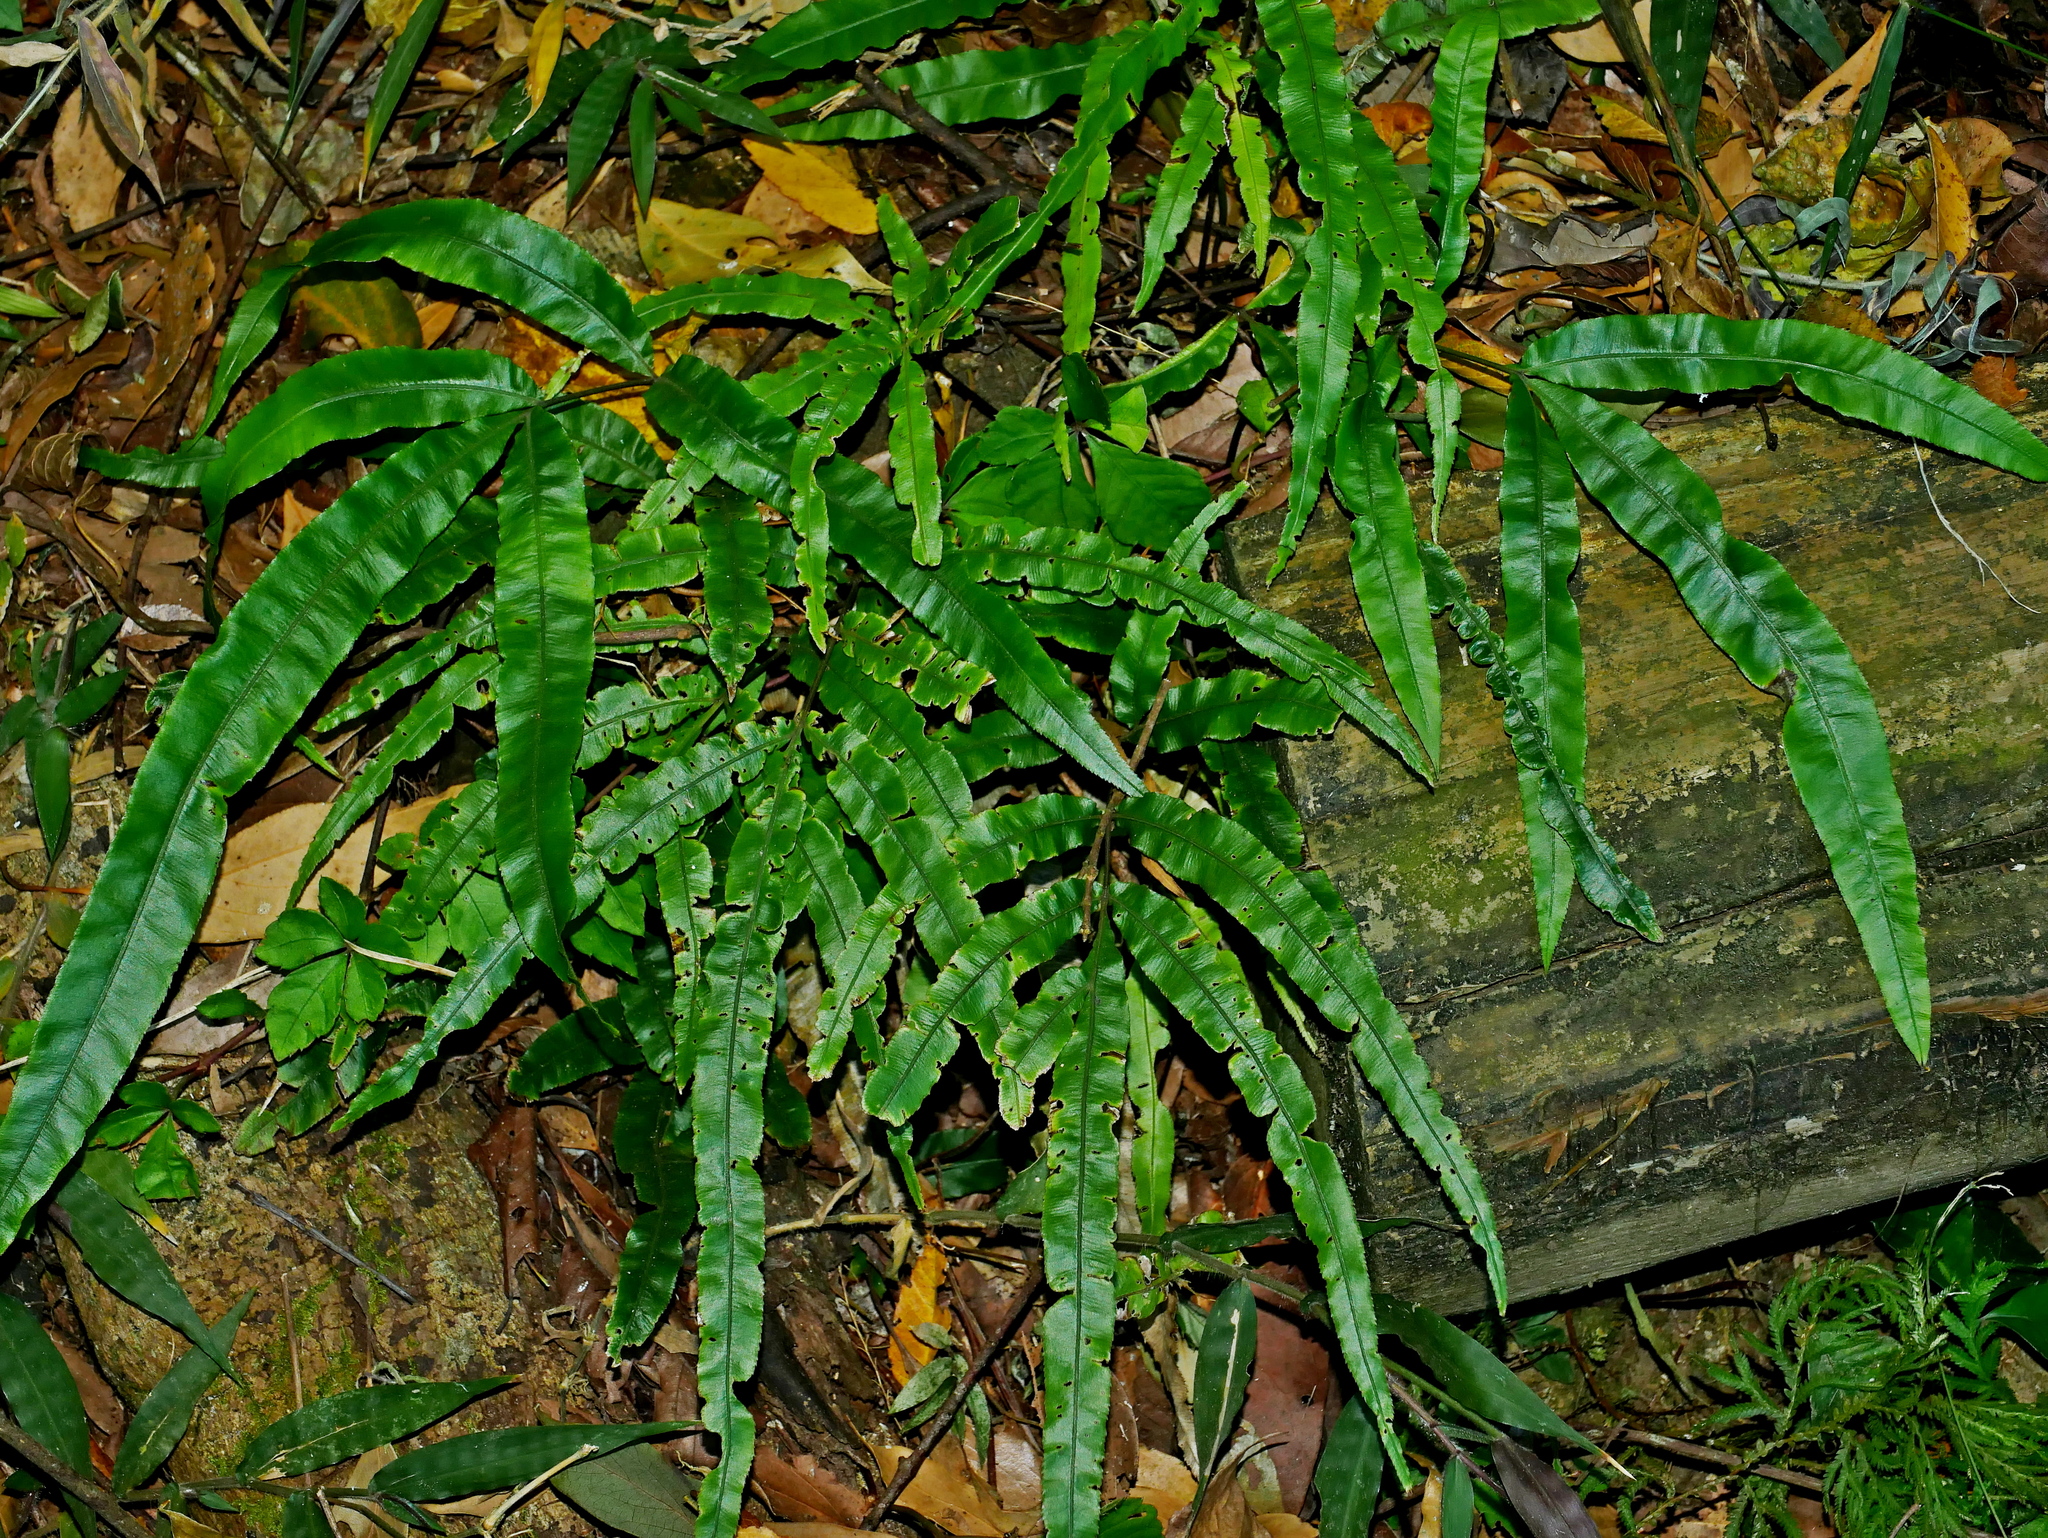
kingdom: Plantae
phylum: Tracheophyta
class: Polypodiopsida
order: Polypodiales
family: Pteridaceae
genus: Pteris
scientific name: Pteris rugosifolia
